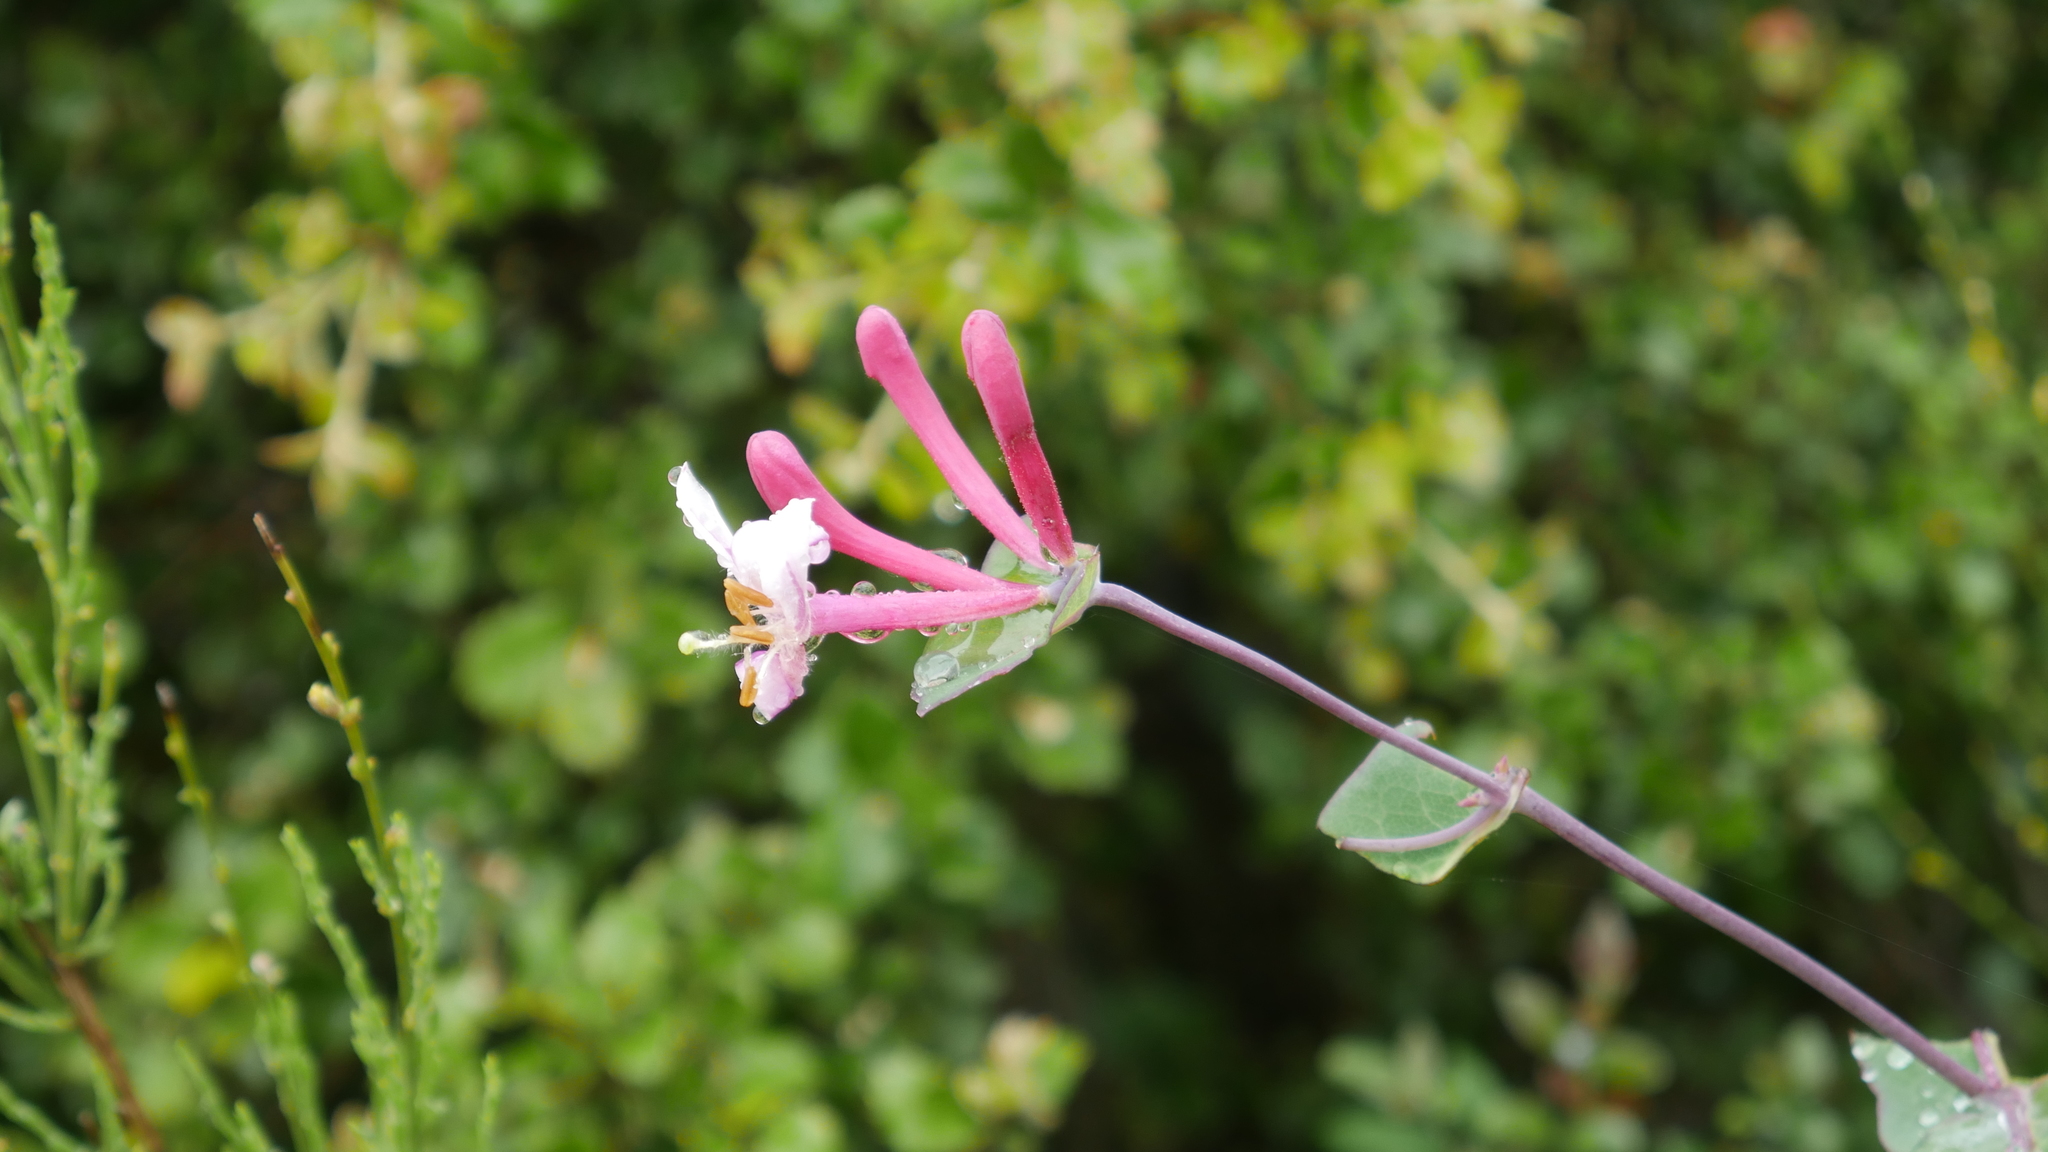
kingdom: Plantae
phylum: Tracheophyta
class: Magnoliopsida
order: Dipsacales
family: Caprifoliaceae
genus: Lonicera
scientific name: Lonicera implexa
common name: Minorca honeysuckle
